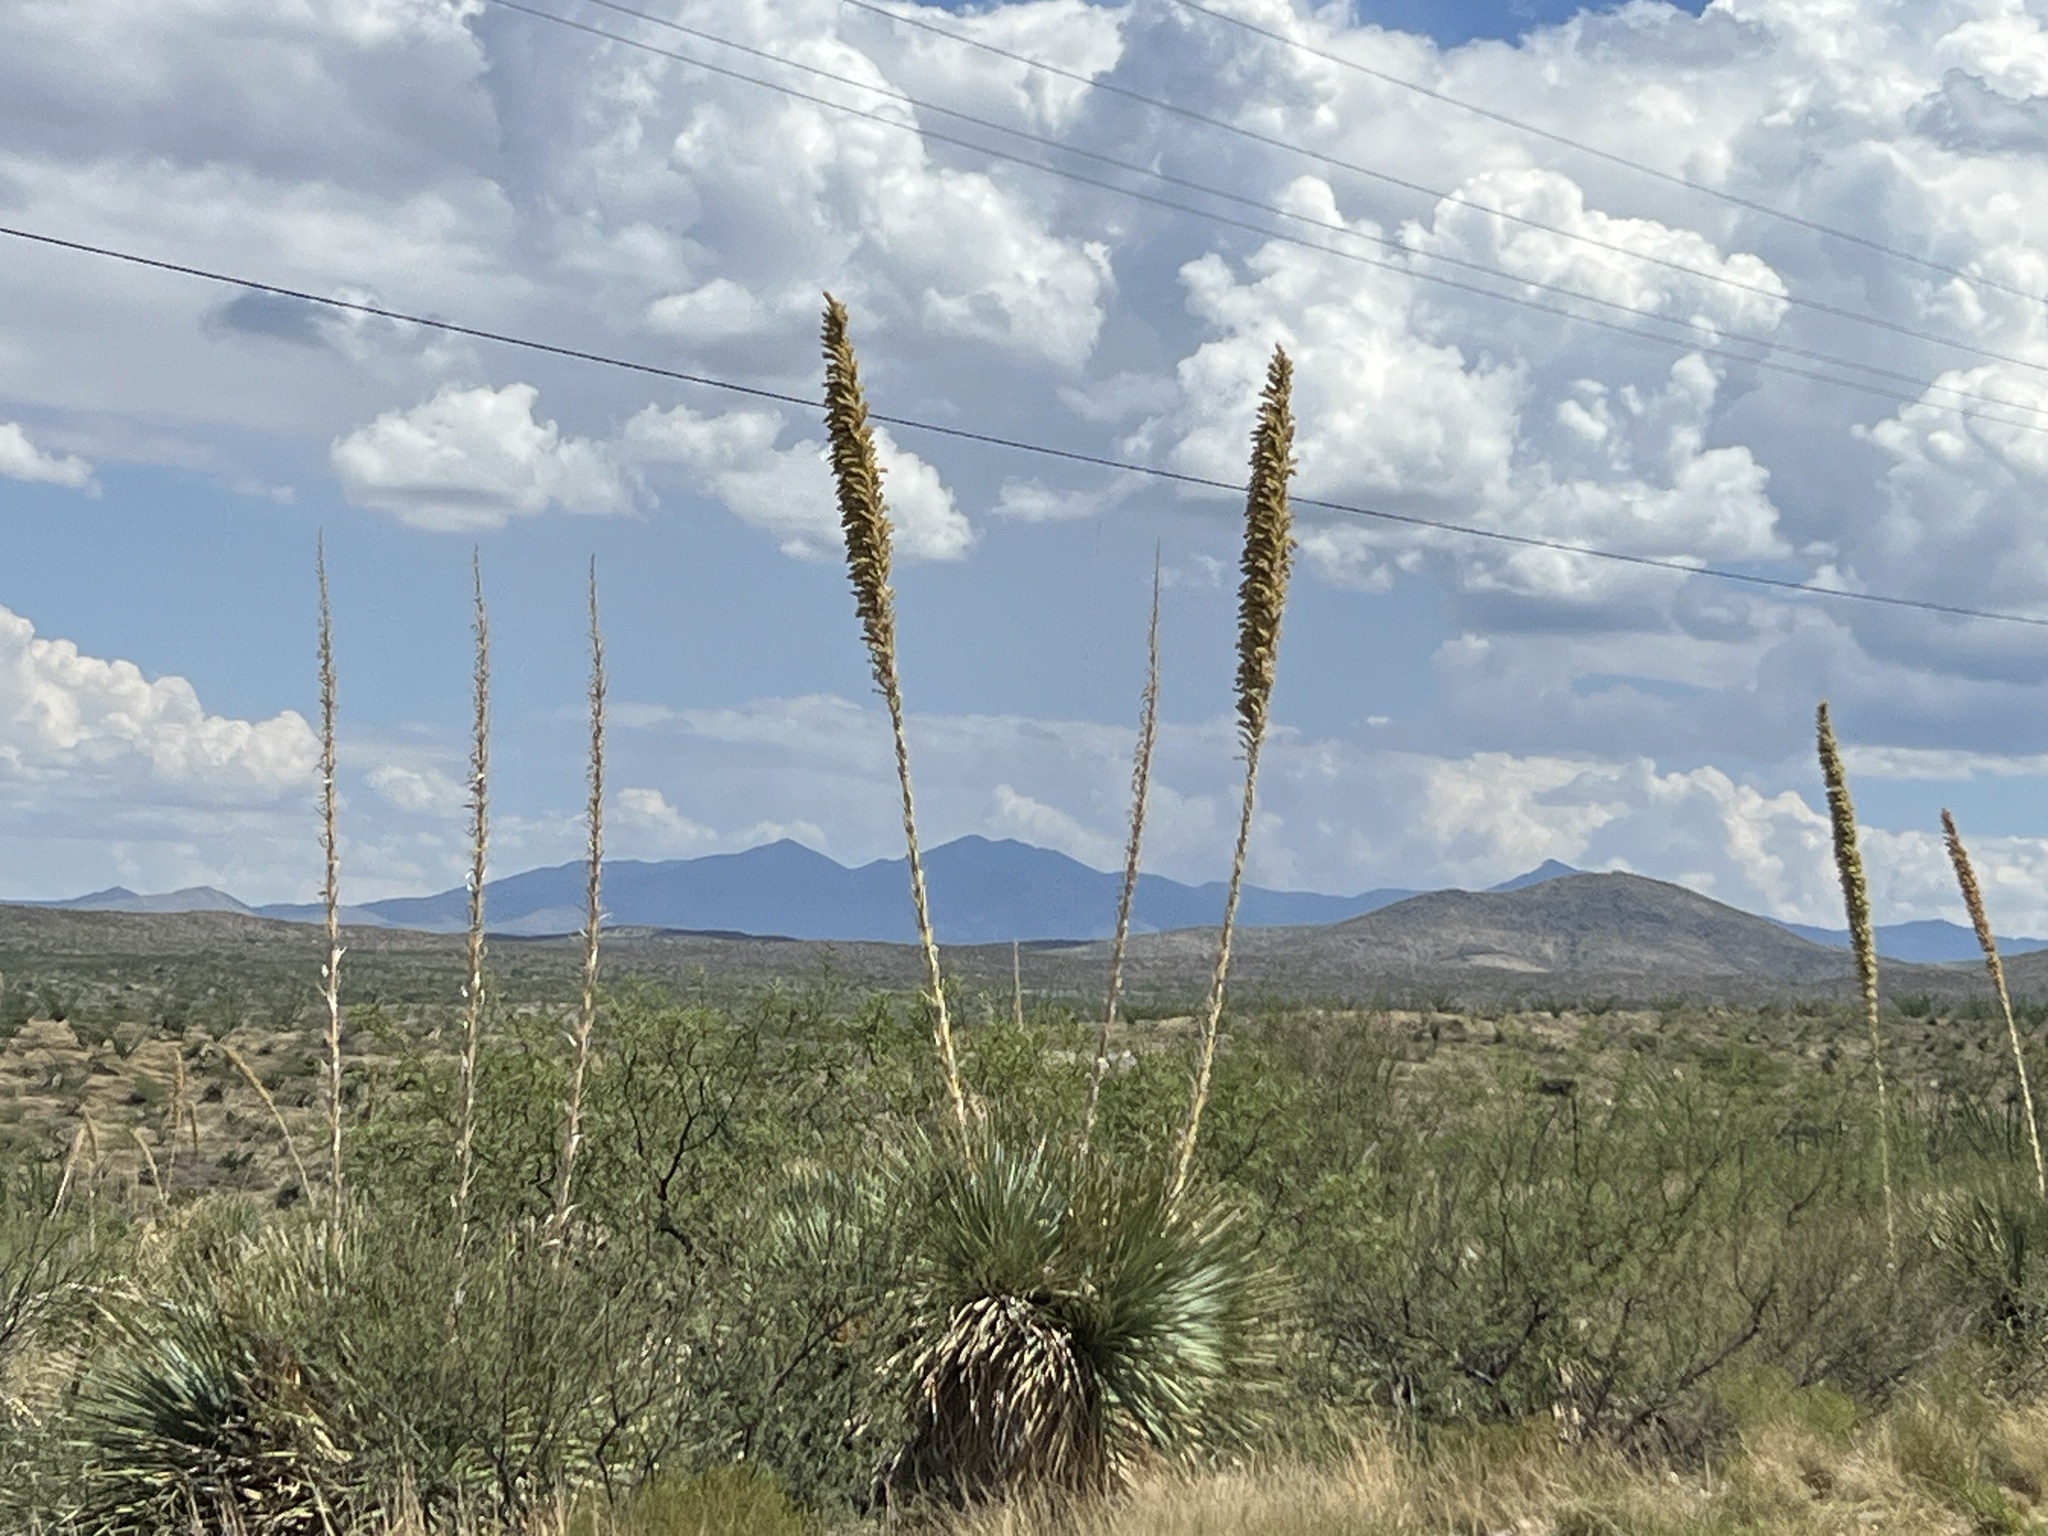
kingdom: Plantae
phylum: Tracheophyta
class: Liliopsida
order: Asparagales
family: Asparagaceae
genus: Dasylirion
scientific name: Dasylirion wheeleri
